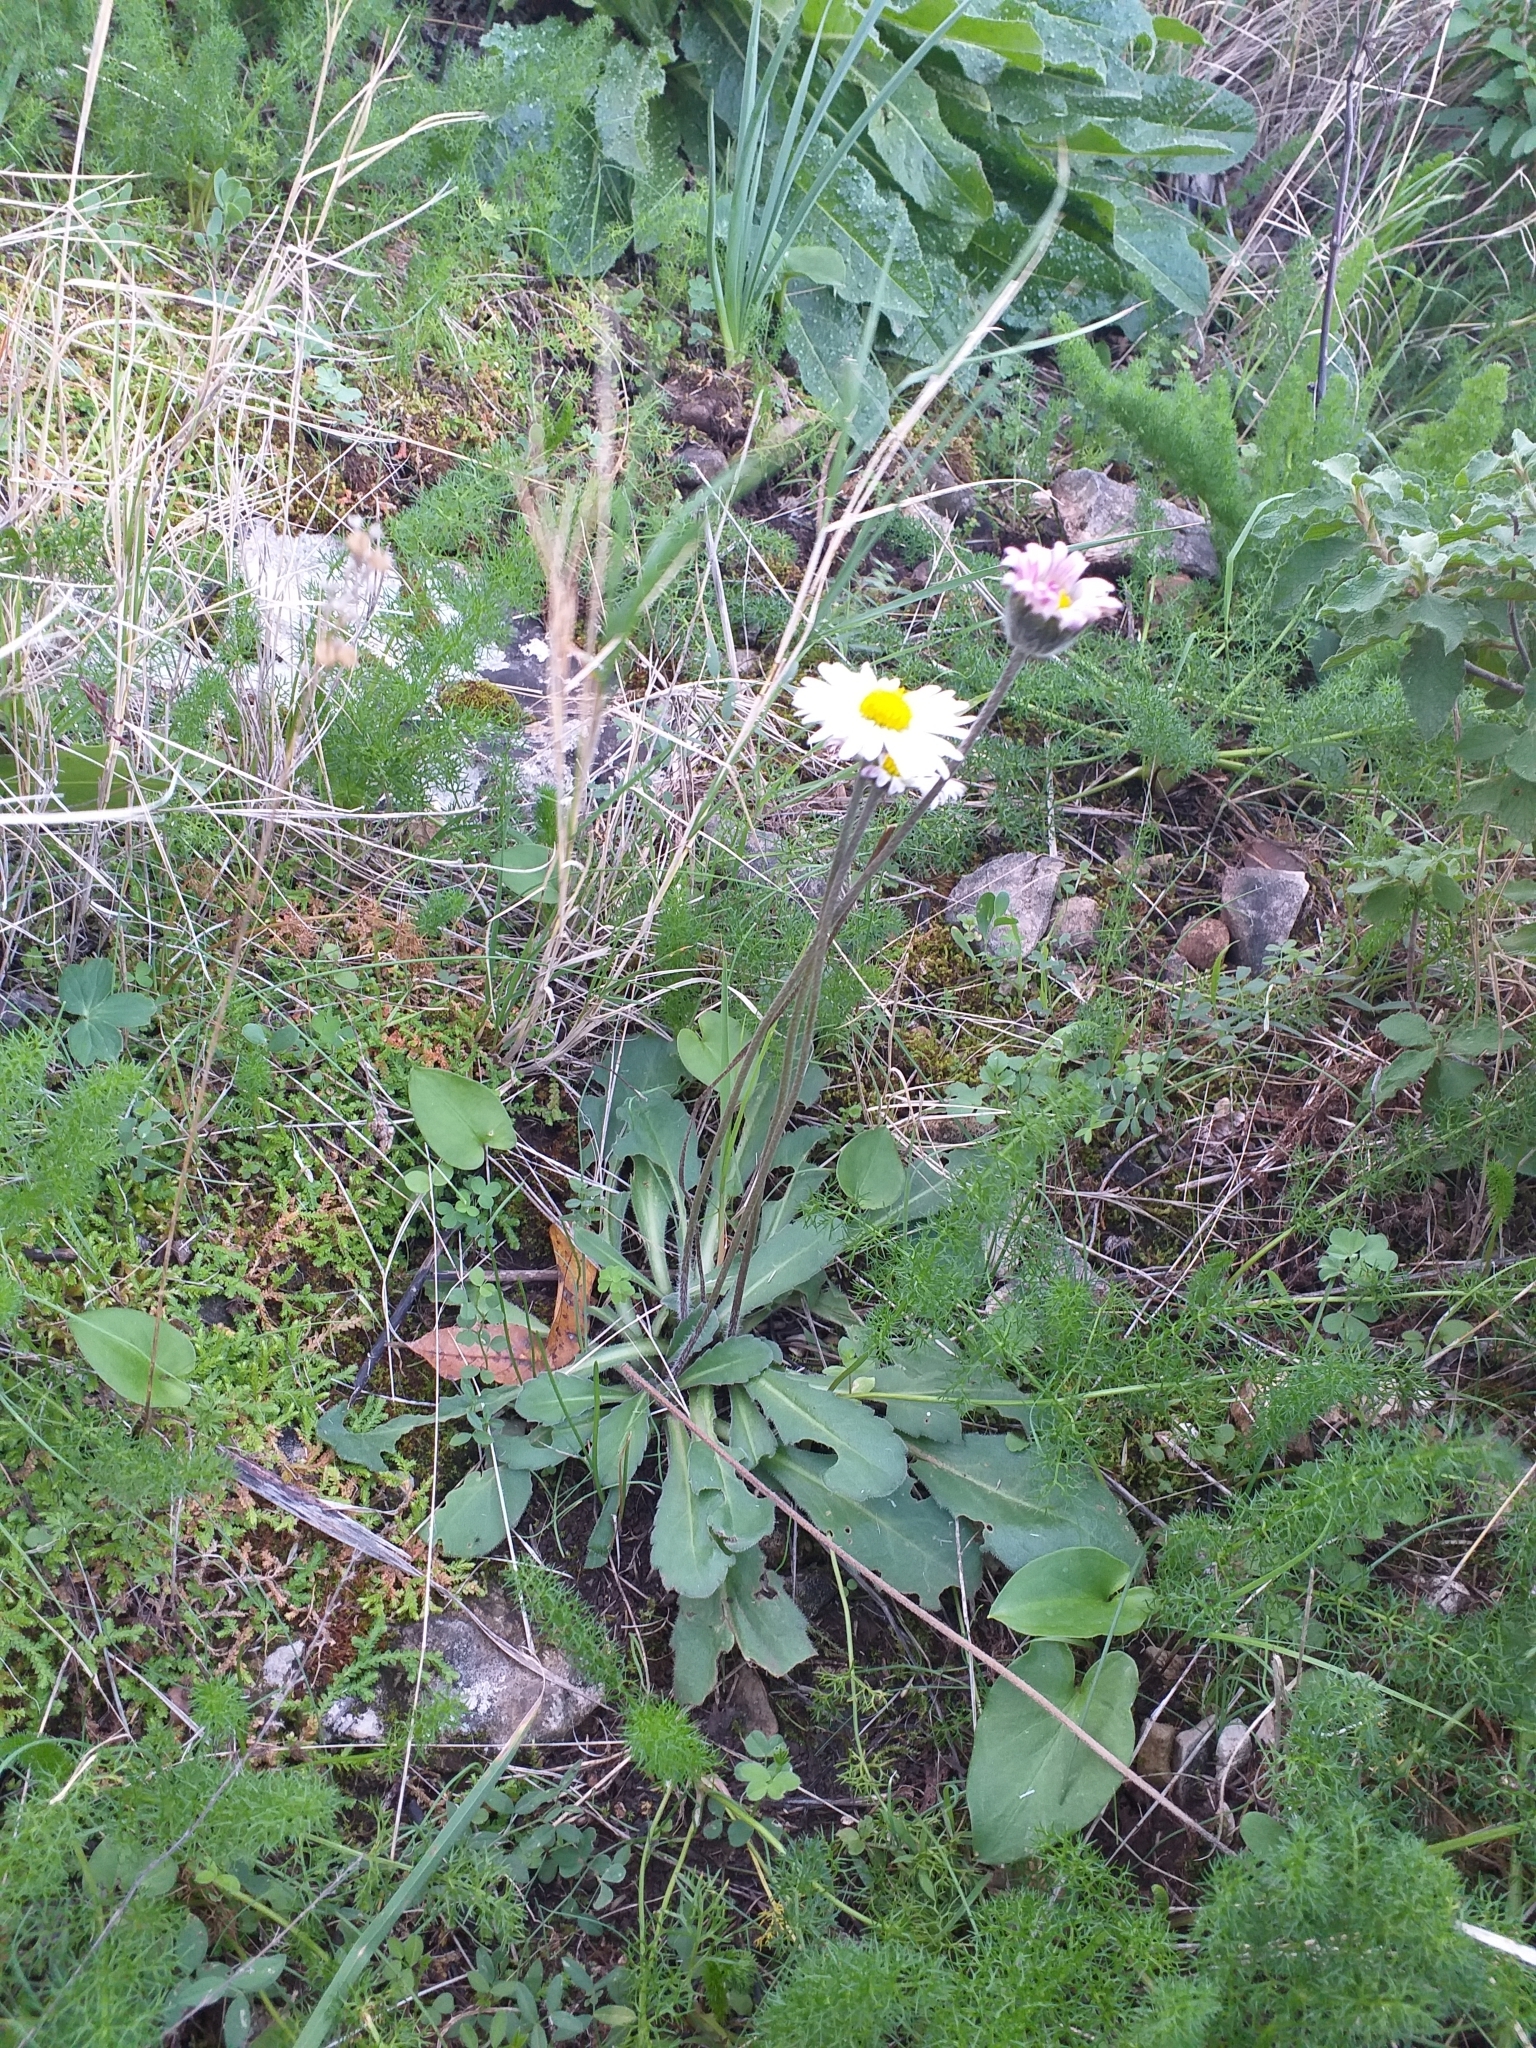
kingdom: Plantae
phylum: Tracheophyta
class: Magnoliopsida
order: Asterales
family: Asteraceae
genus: Bellis
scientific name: Bellis sylvestris
